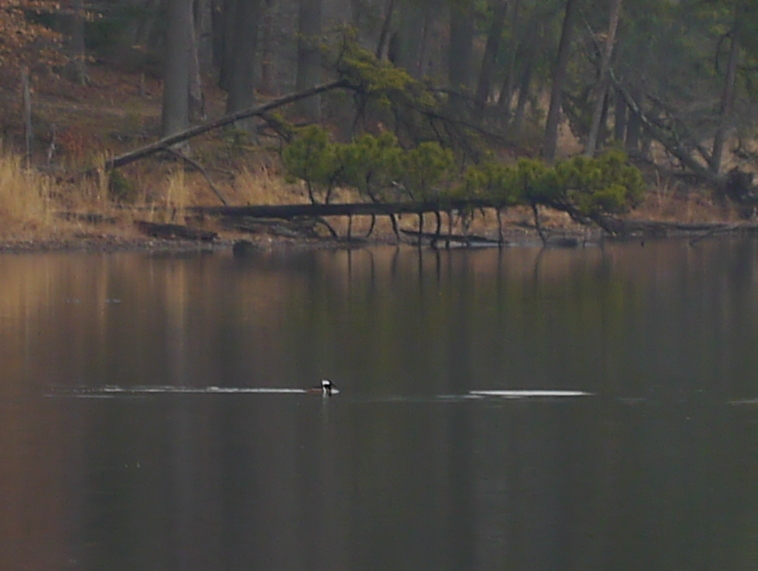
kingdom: Animalia
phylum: Chordata
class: Aves
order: Anseriformes
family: Anatidae
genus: Lophodytes
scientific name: Lophodytes cucullatus
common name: Hooded merganser
